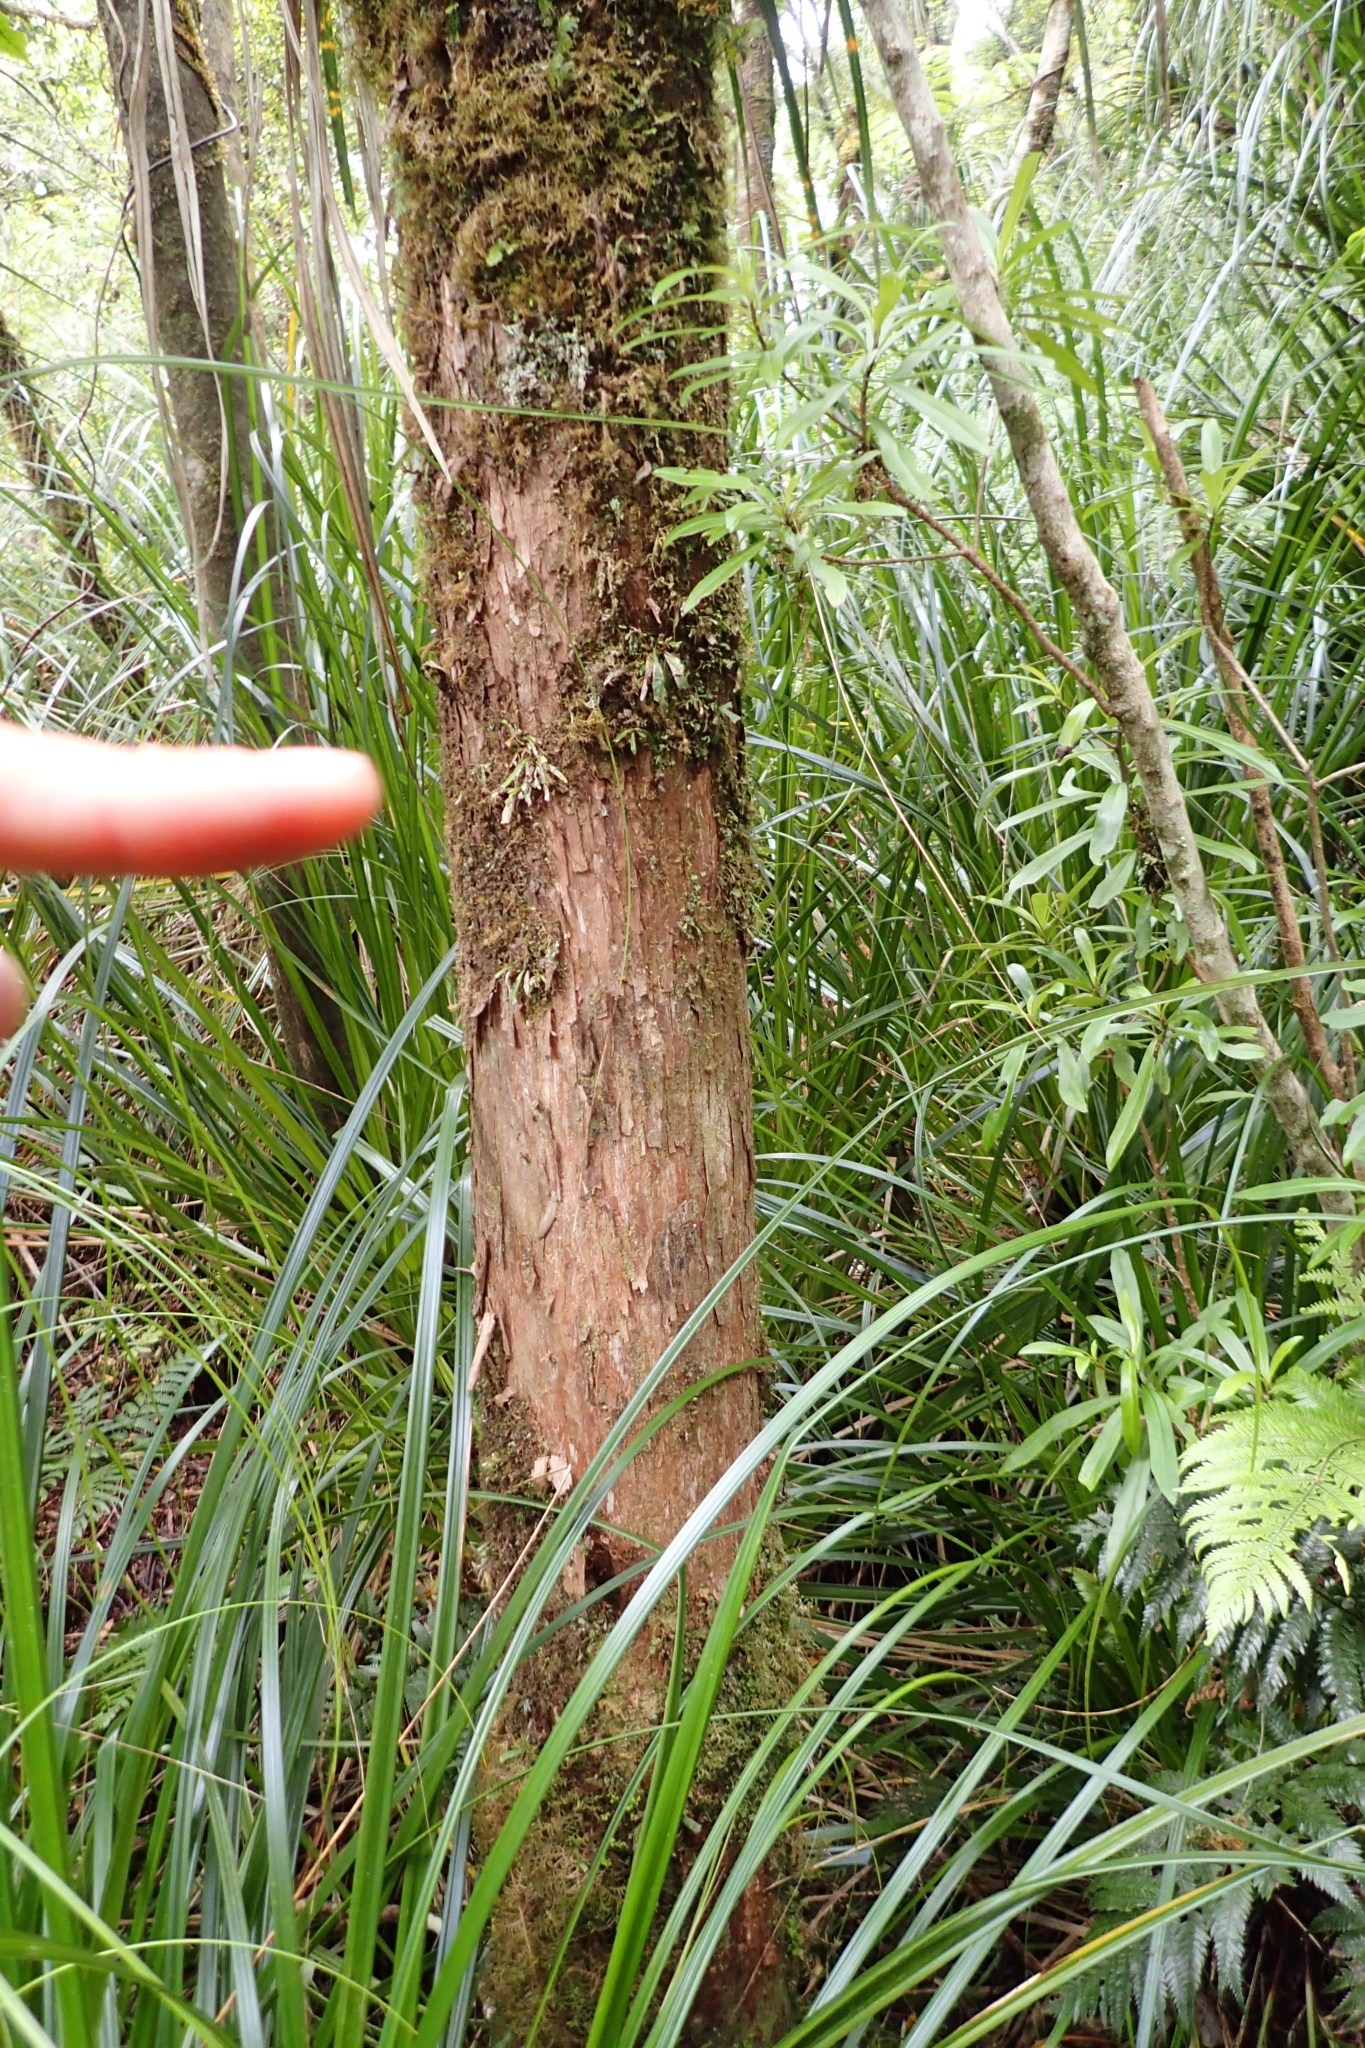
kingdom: Plantae
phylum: Tracheophyta
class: Polypodiopsida
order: Polypodiales
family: Polypodiaceae
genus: Notogrammitis
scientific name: Notogrammitis pseudociliata
